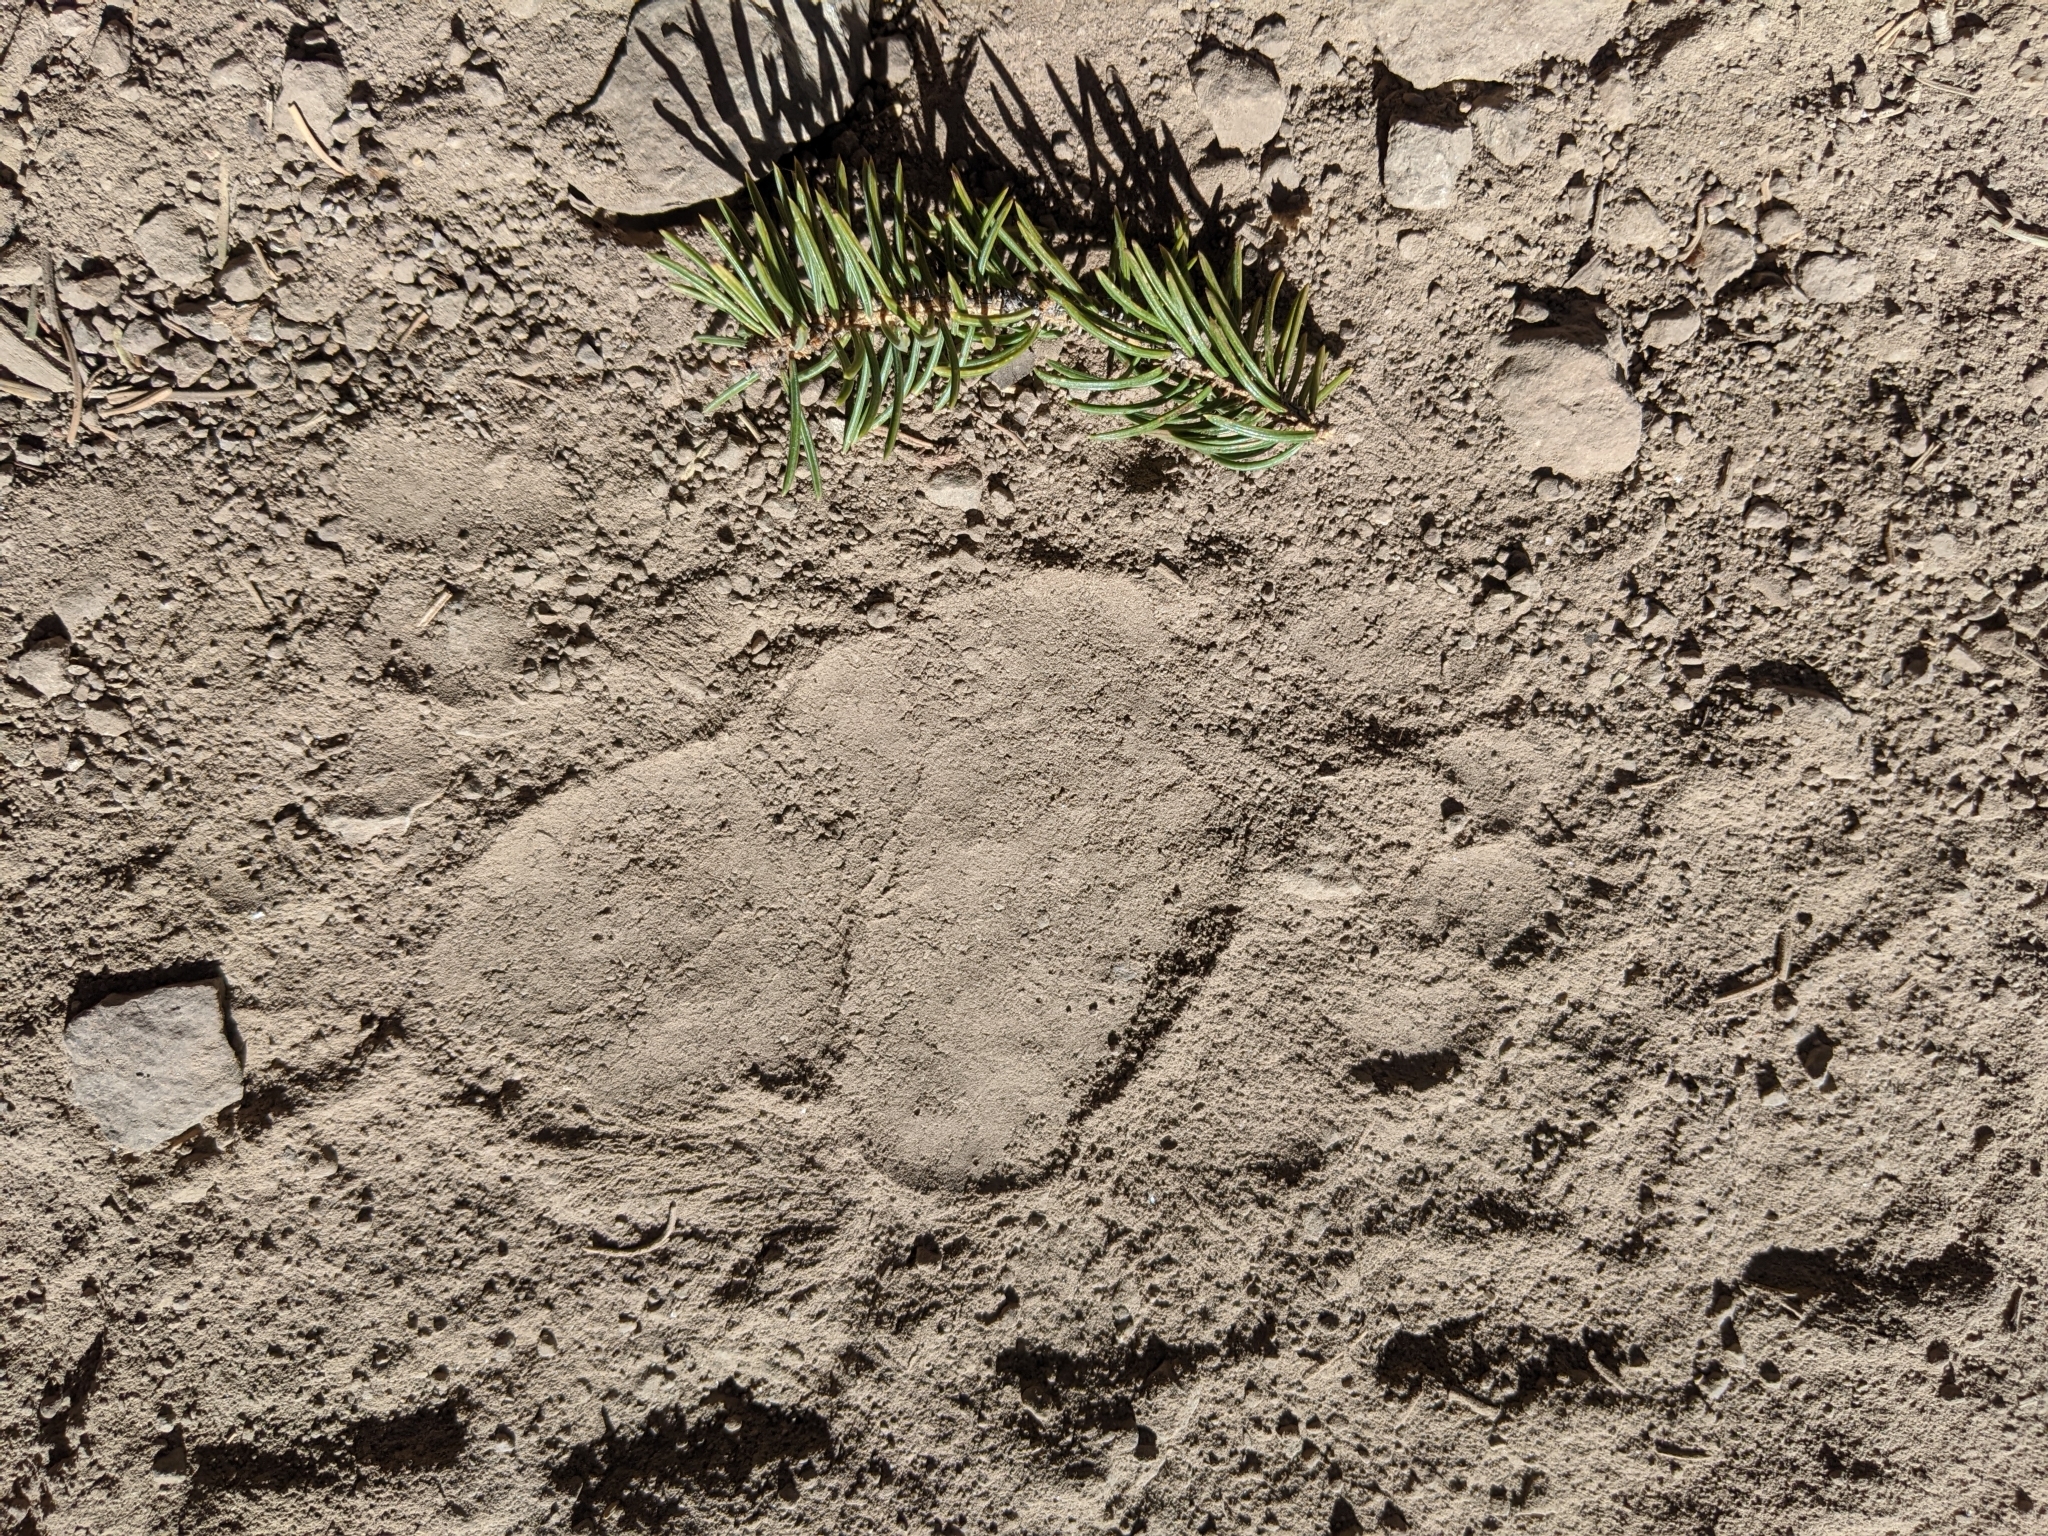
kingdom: Animalia
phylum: Chordata
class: Mammalia
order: Carnivora
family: Ursidae
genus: Ursus
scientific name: Ursus americanus
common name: American black bear
